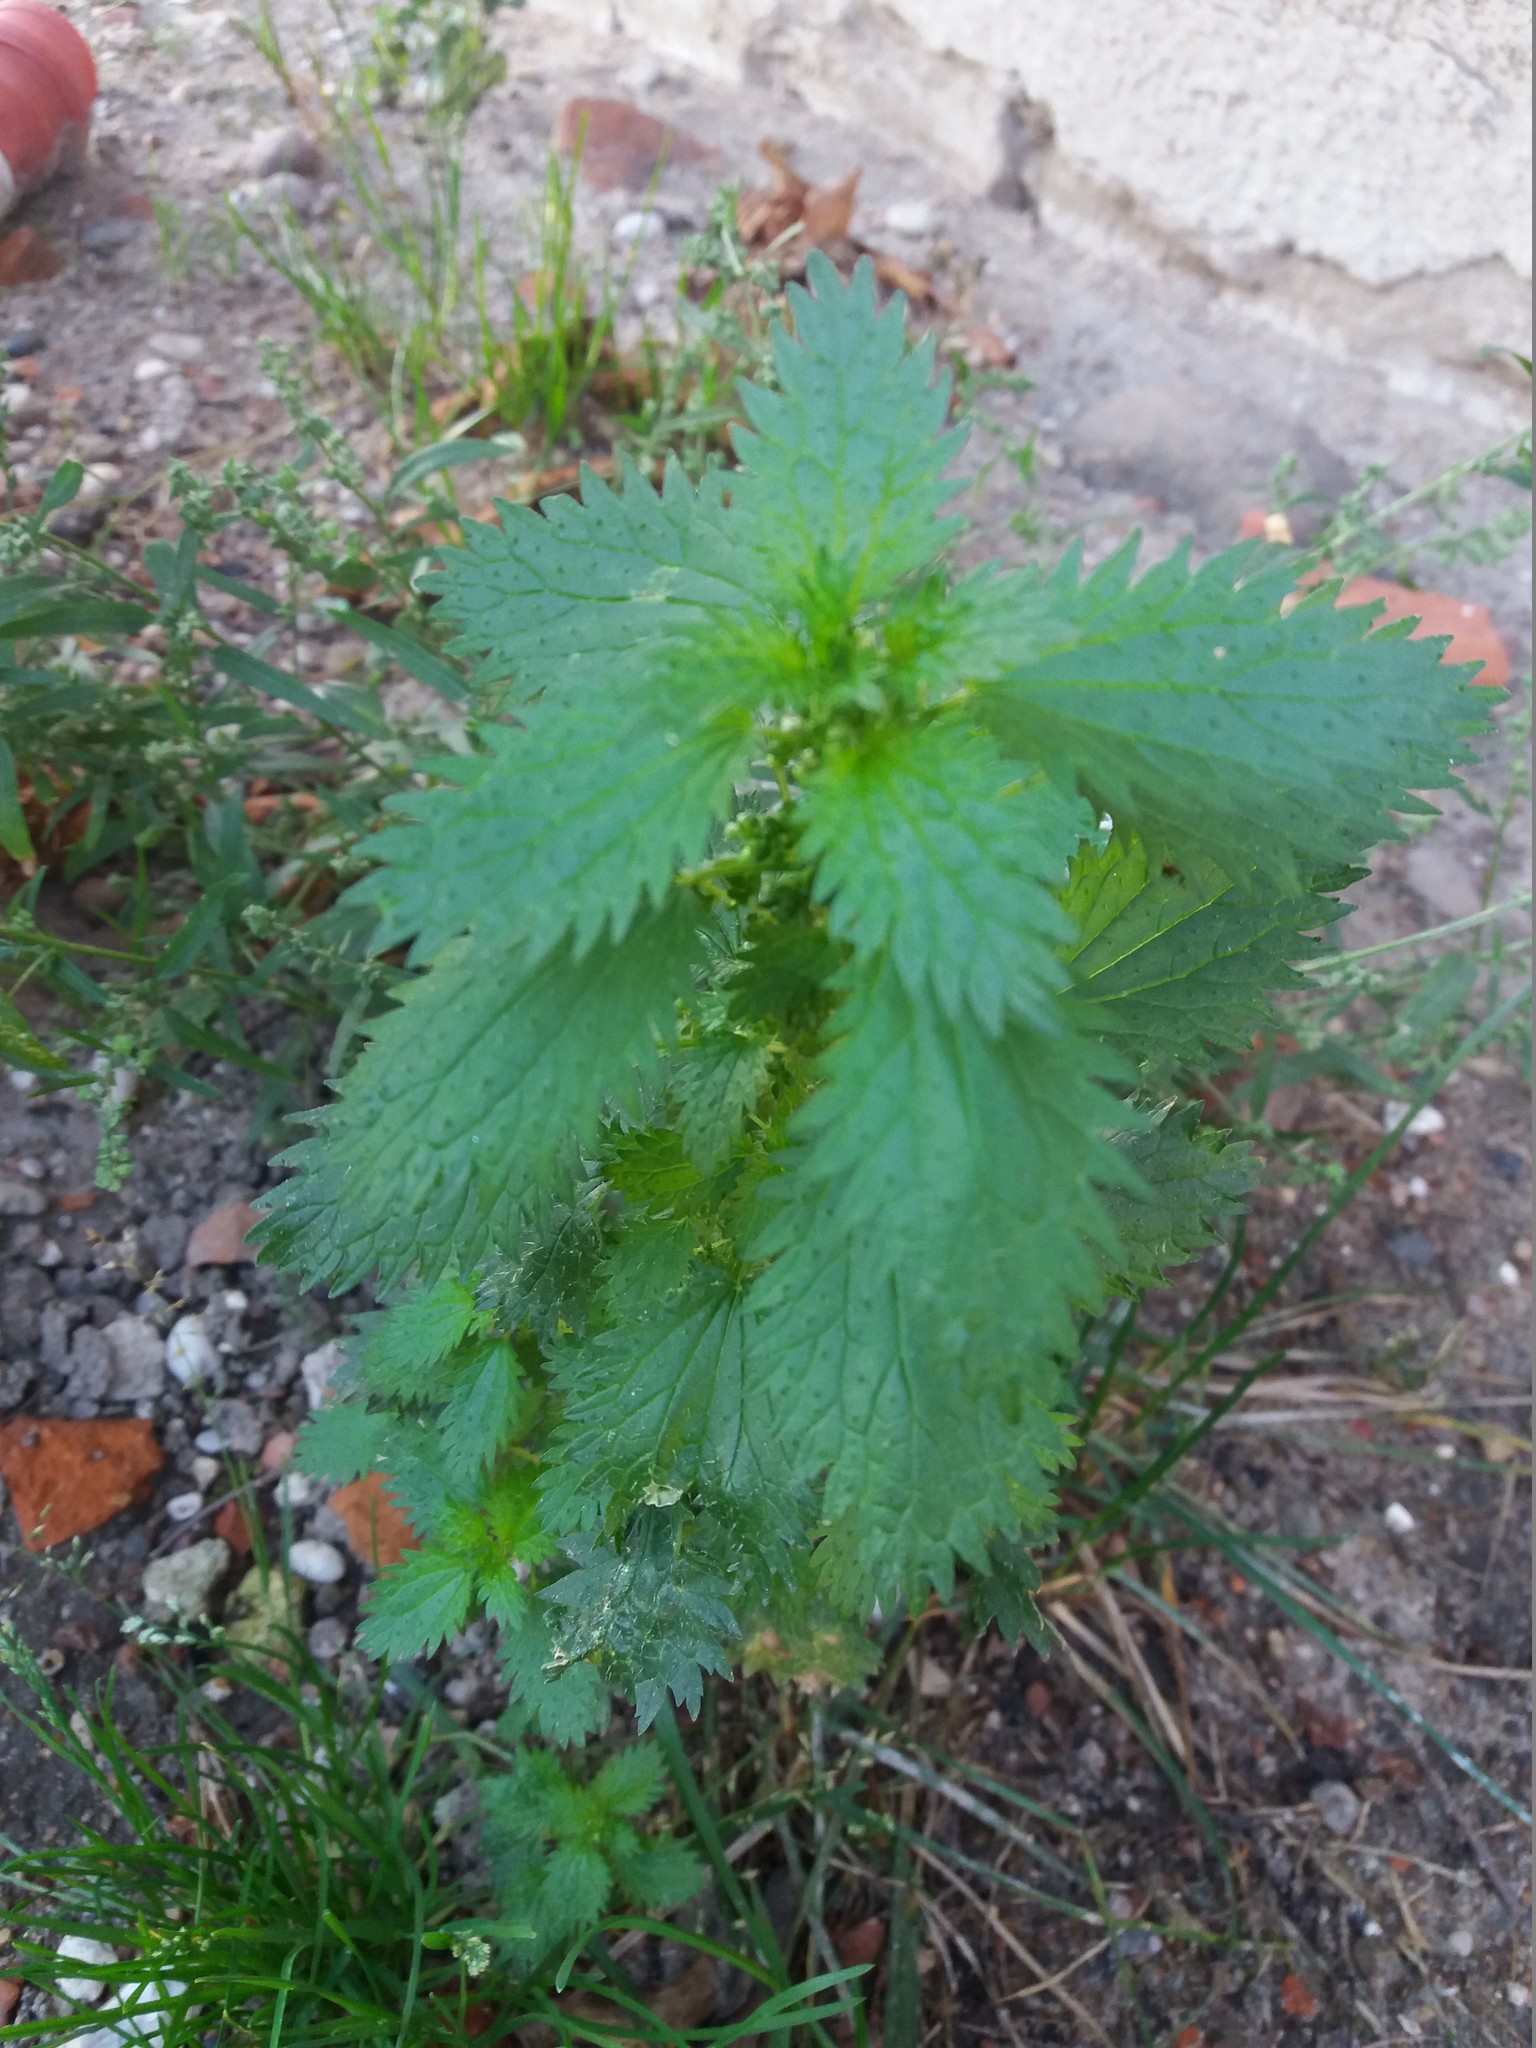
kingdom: Plantae
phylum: Tracheophyta
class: Magnoliopsida
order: Rosales
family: Urticaceae
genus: Urtica
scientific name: Urtica urens
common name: Dwarf nettle
